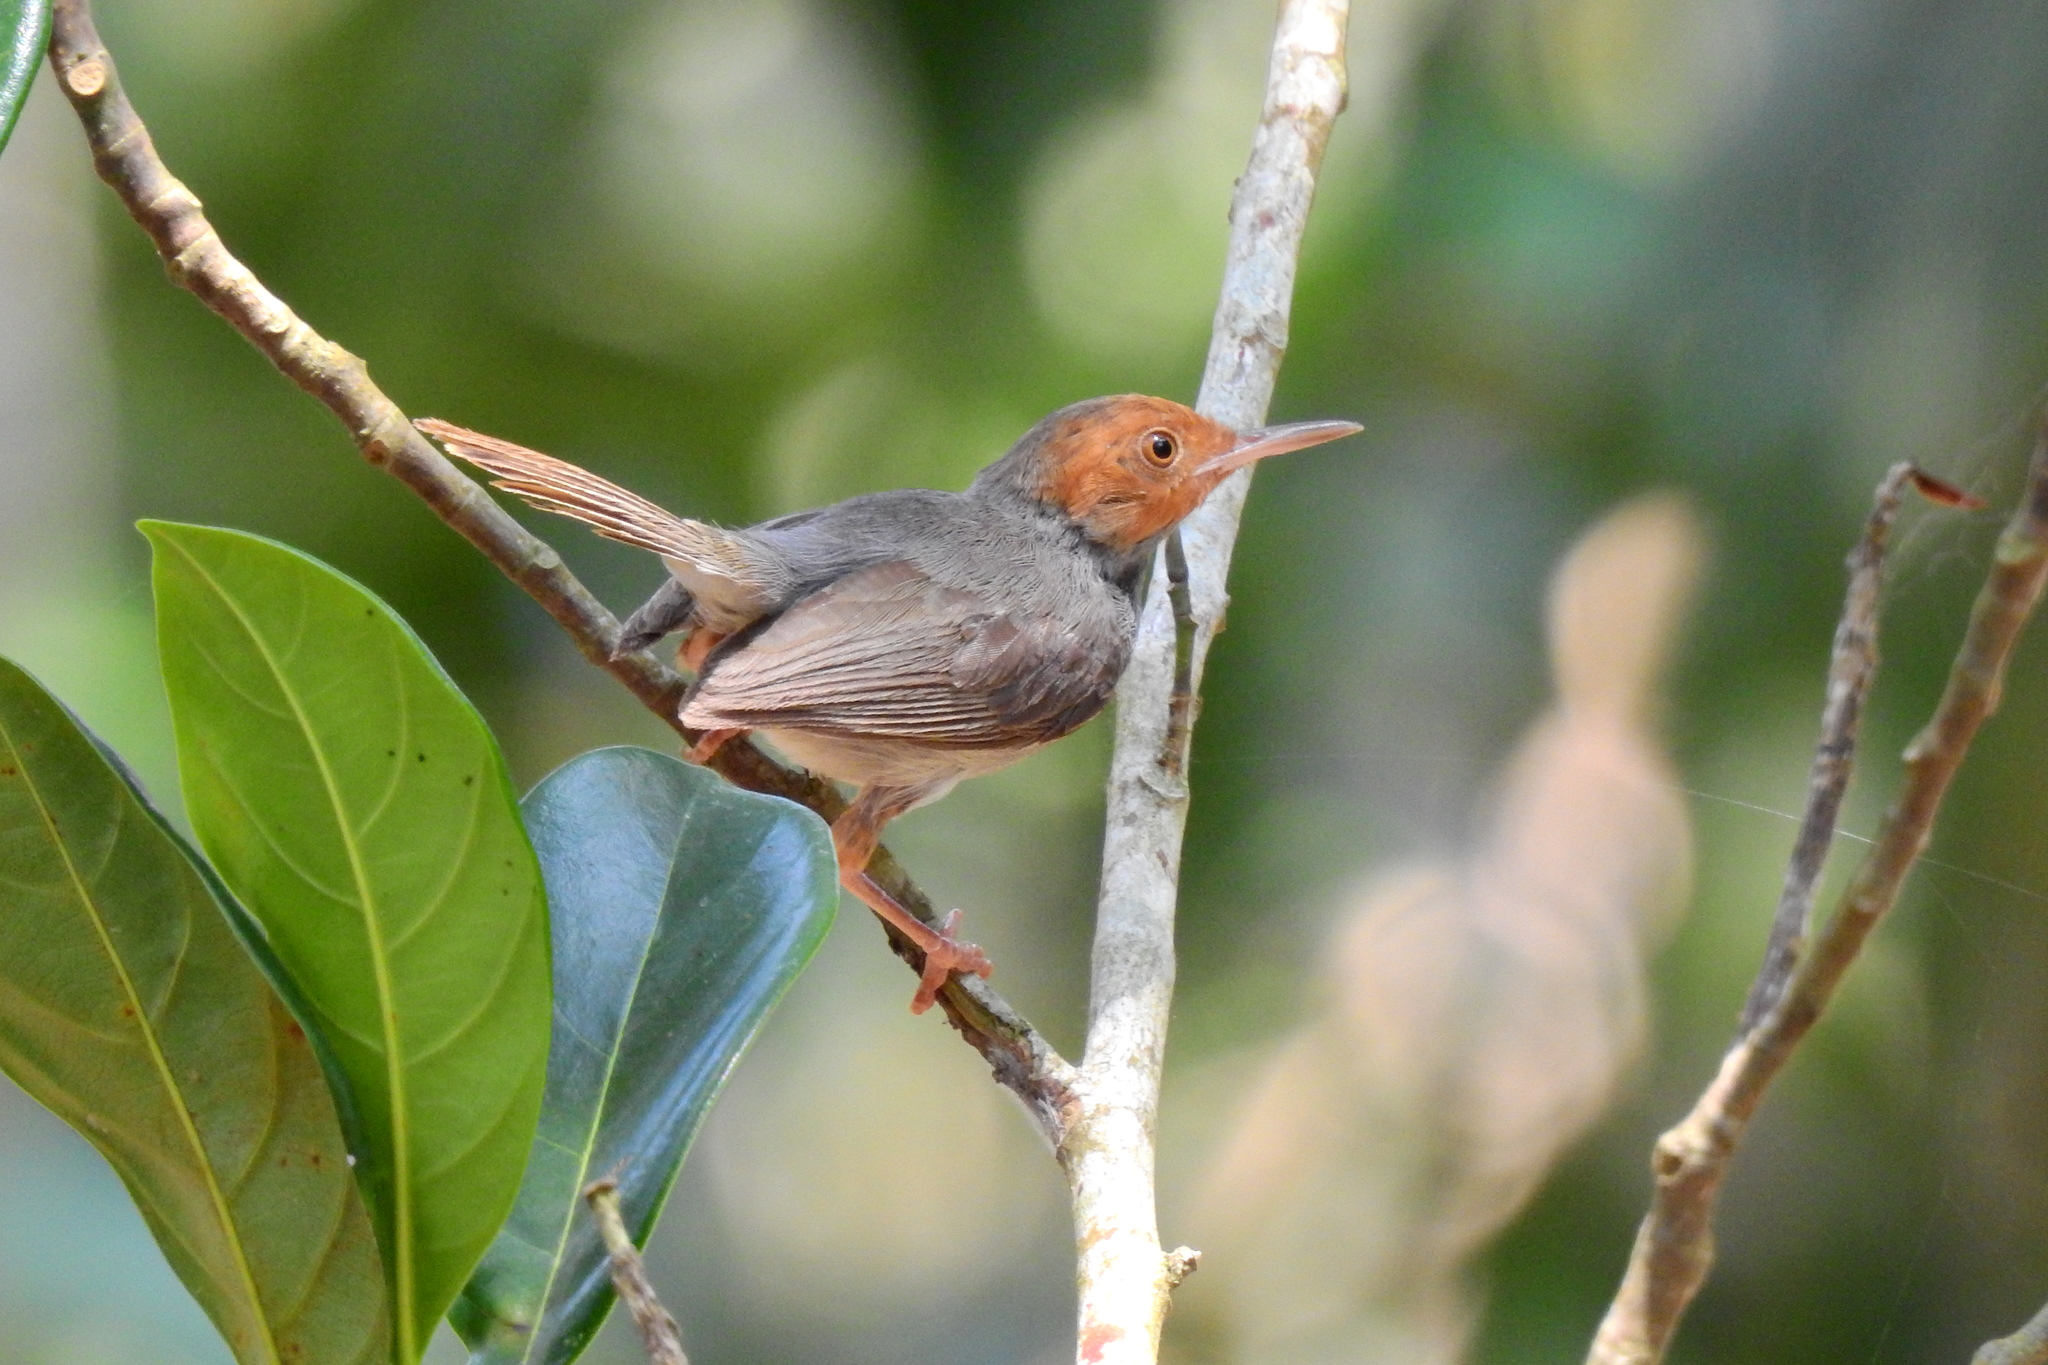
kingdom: Animalia
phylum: Chordata
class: Aves
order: Passeriformes
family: Cisticolidae
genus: Orthotomus
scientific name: Orthotomus ruficeps
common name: Ashy tailorbird
